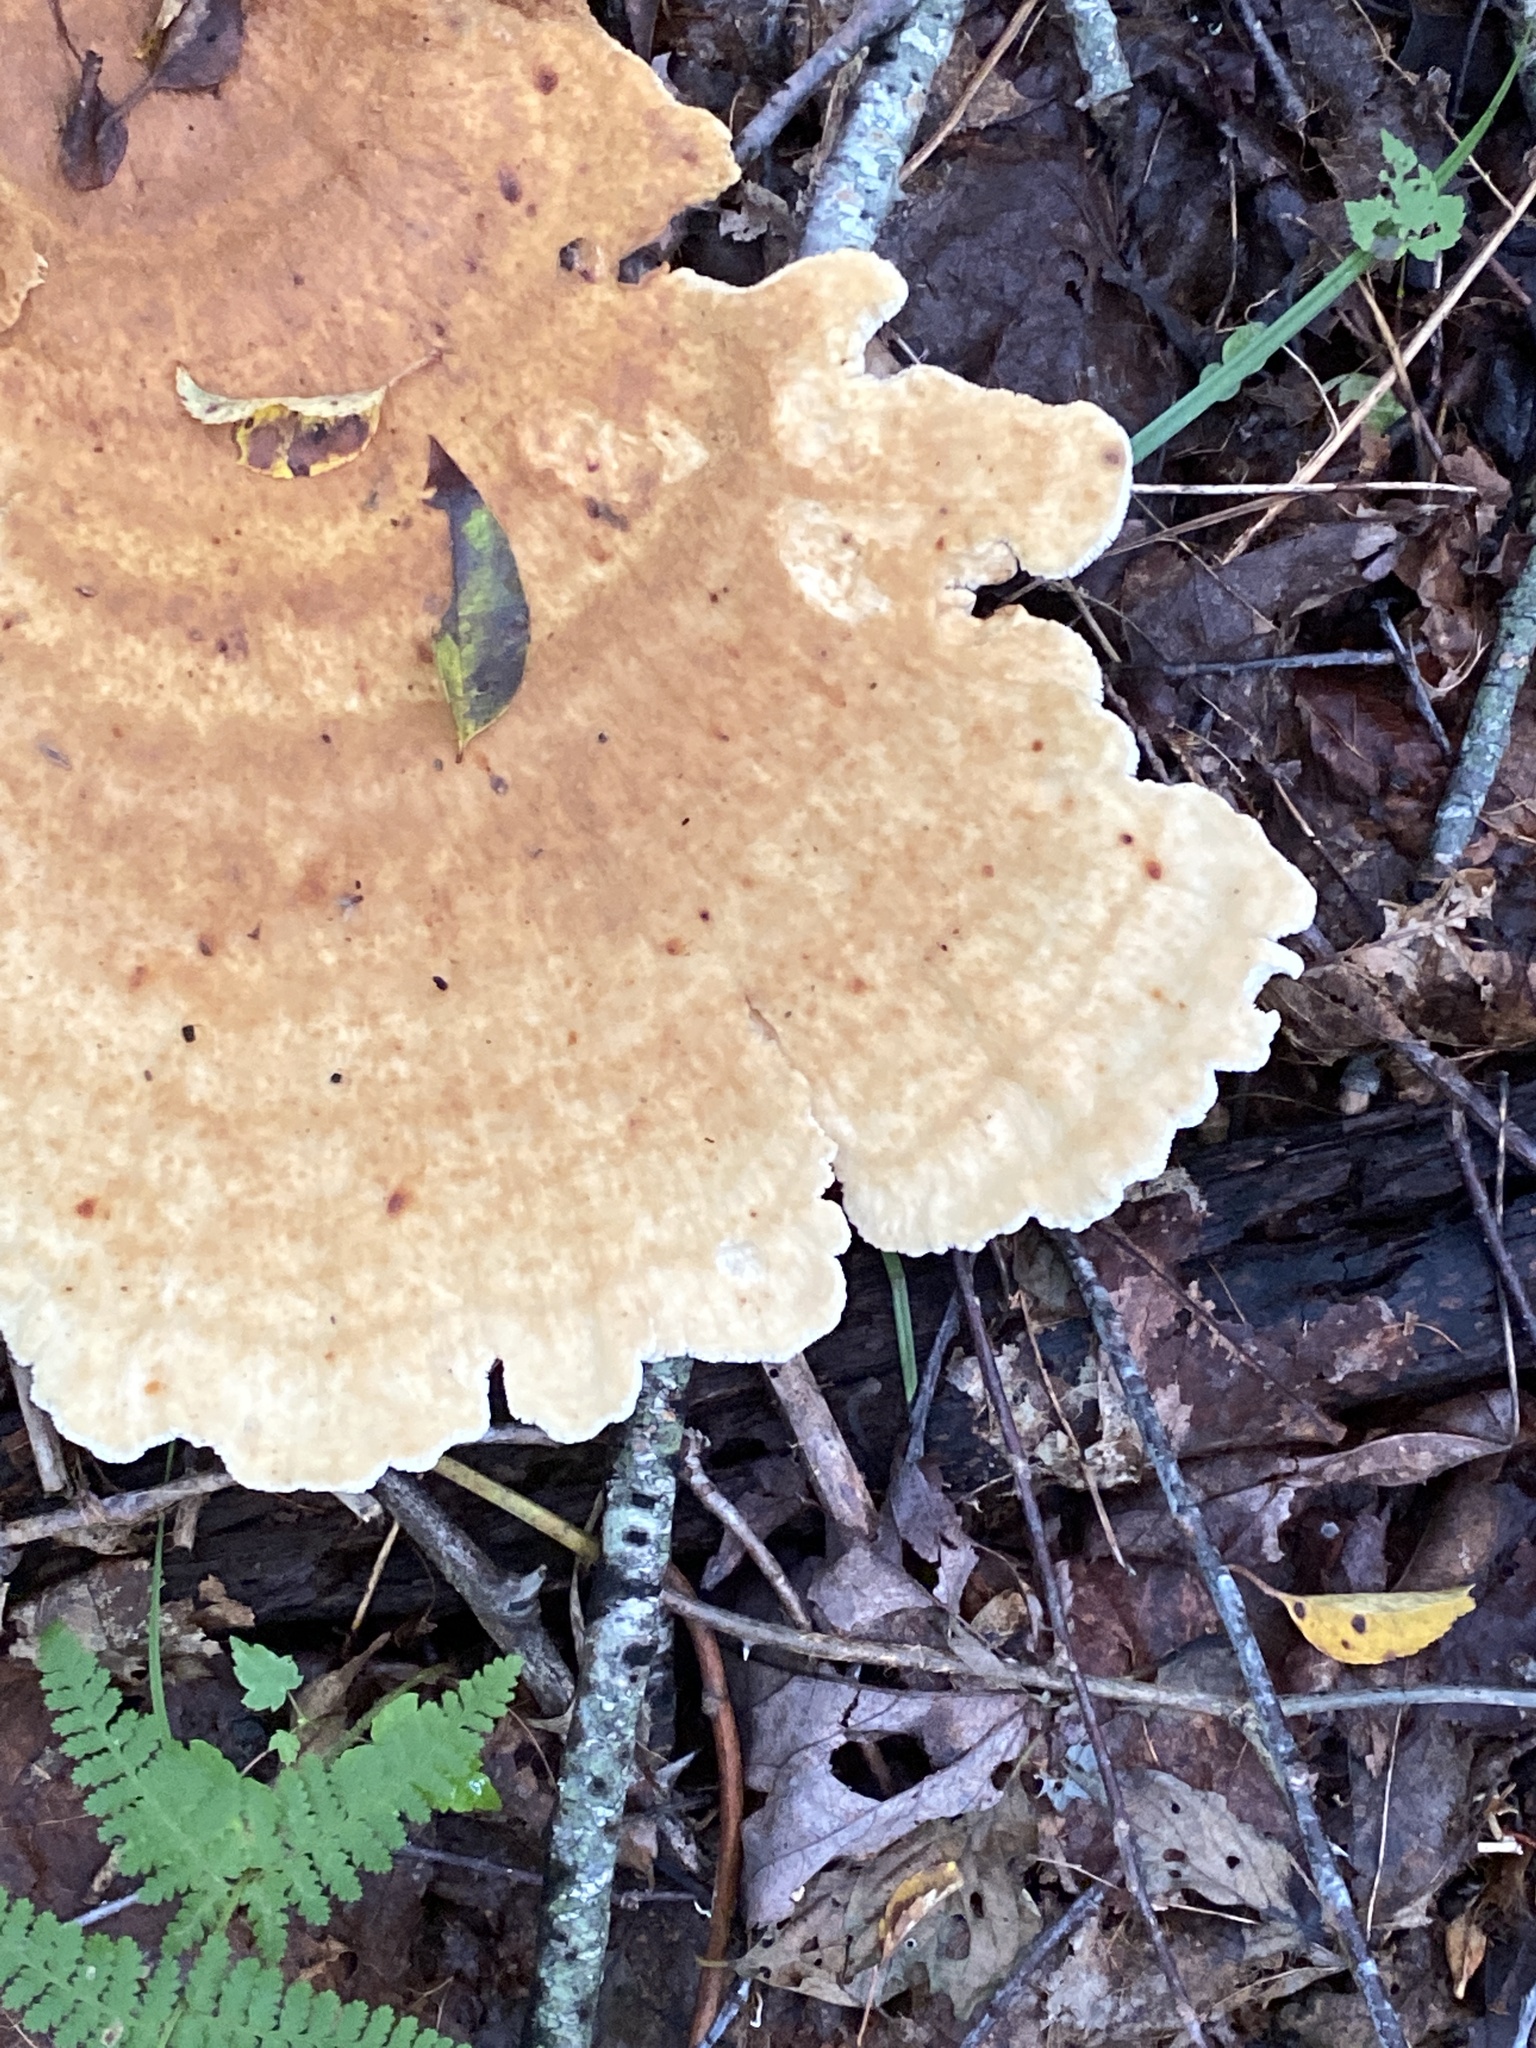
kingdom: Fungi
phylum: Basidiomycota
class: Agaricomycetes
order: Russulales
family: Bondarzewiaceae
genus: Bondarzewia
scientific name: Bondarzewia berkeleyi
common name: Berkeley's polypore
